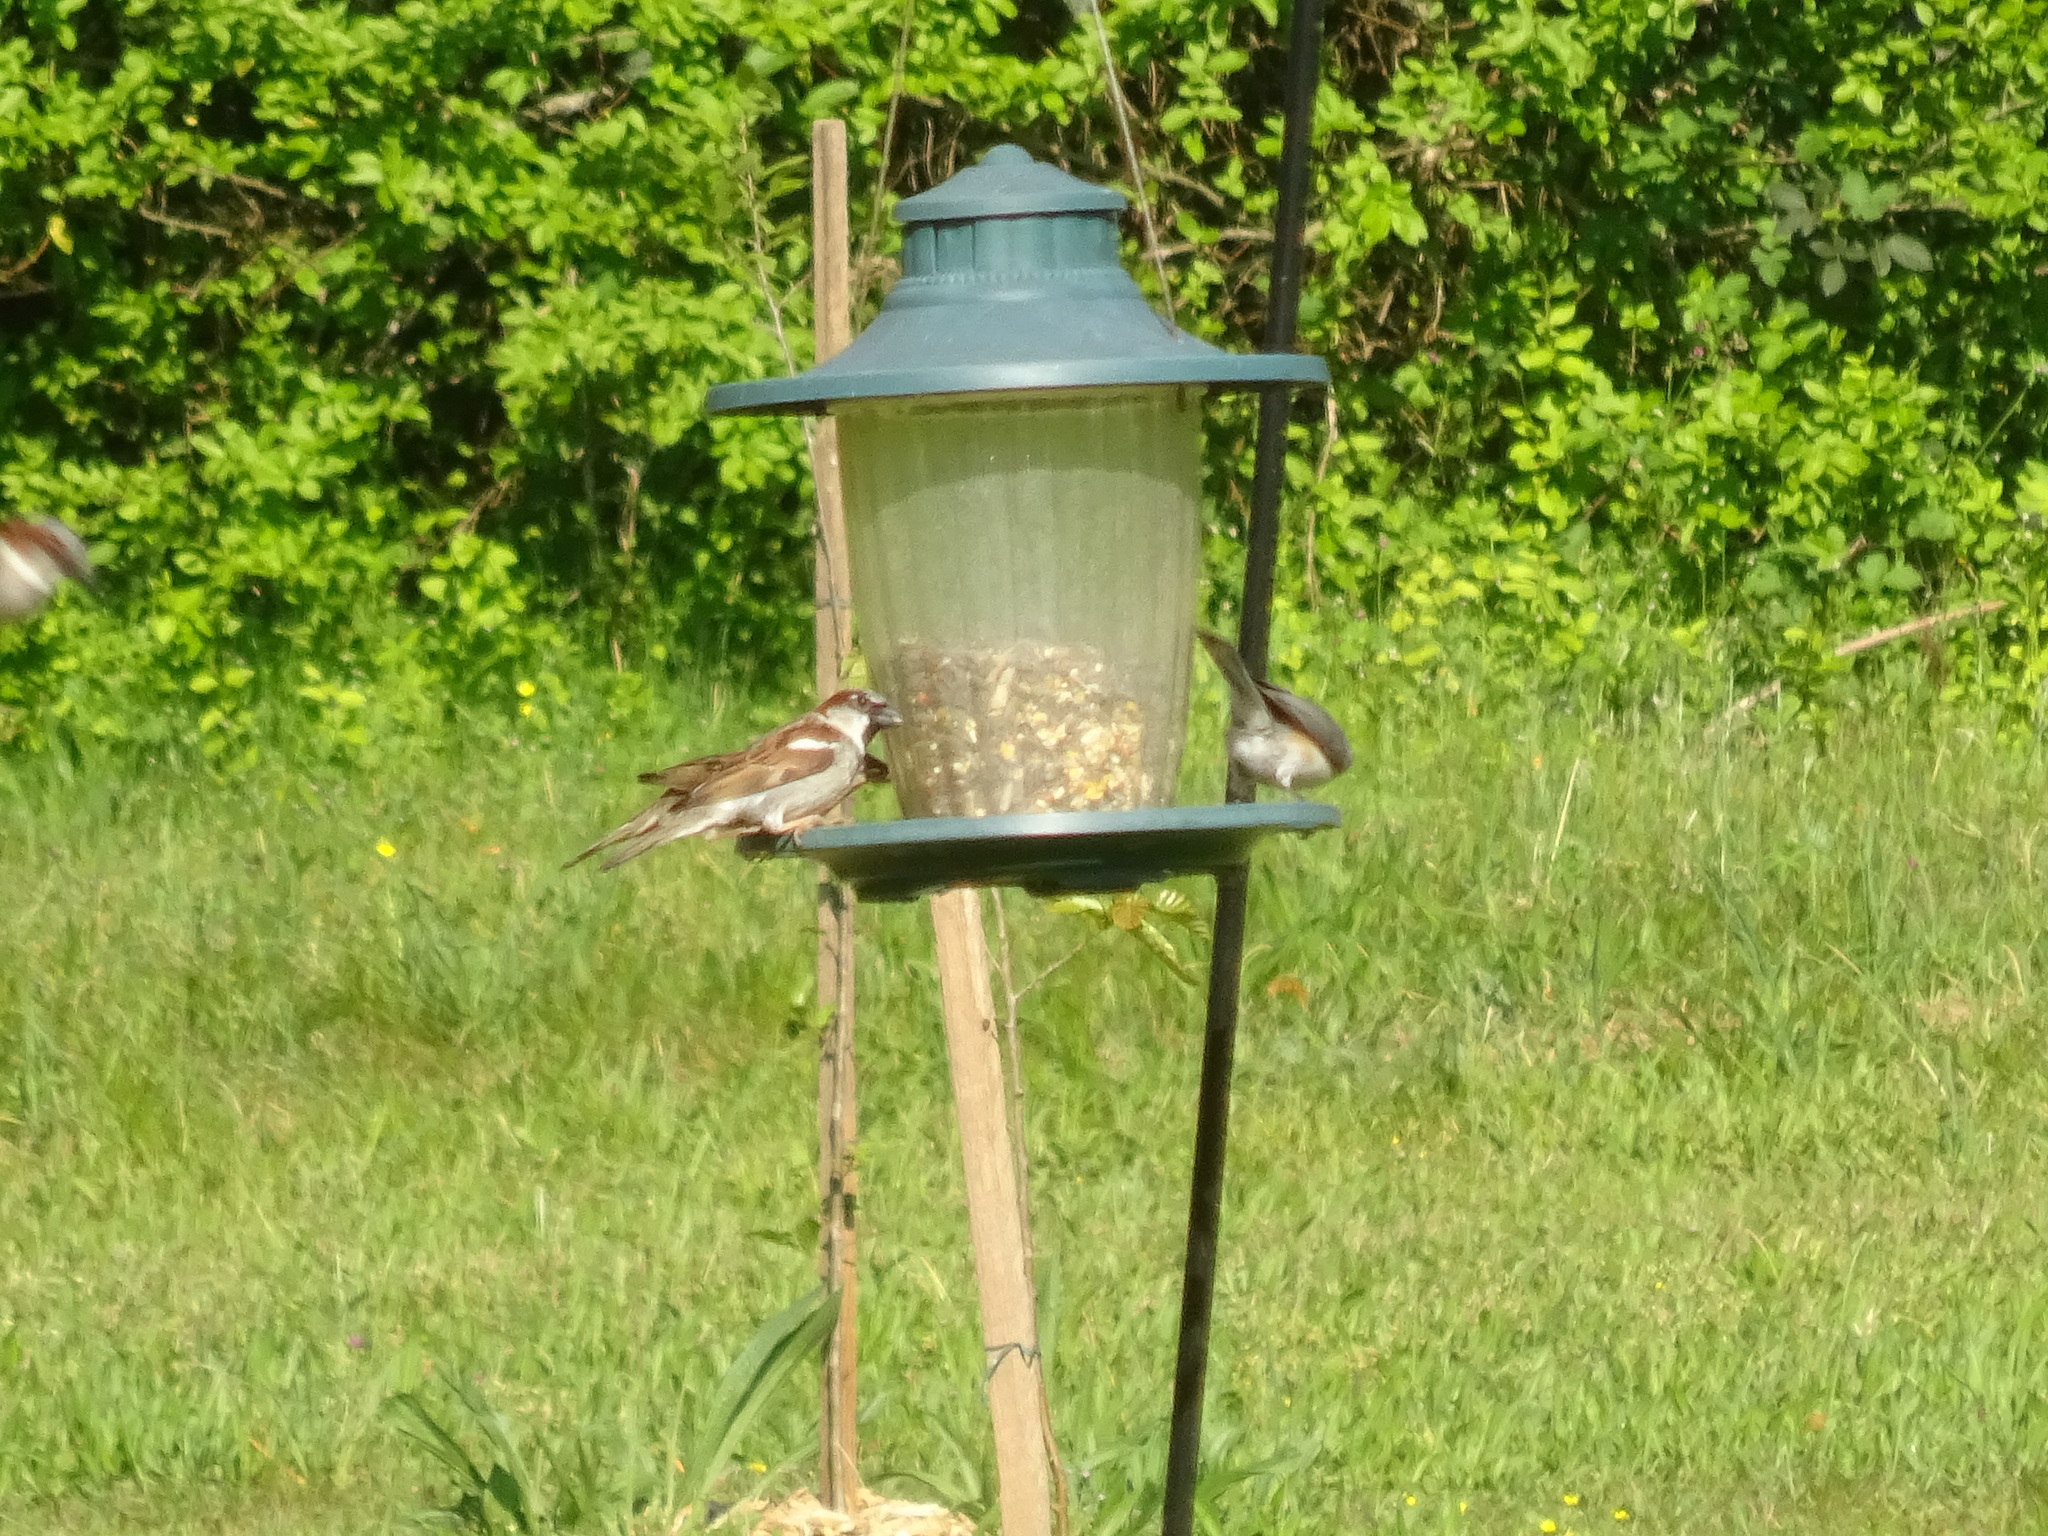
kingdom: Animalia
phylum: Chordata
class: Aves
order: Passeriformes
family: Passeridae
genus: Passer
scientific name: Passer domesticus
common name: House sparrow
